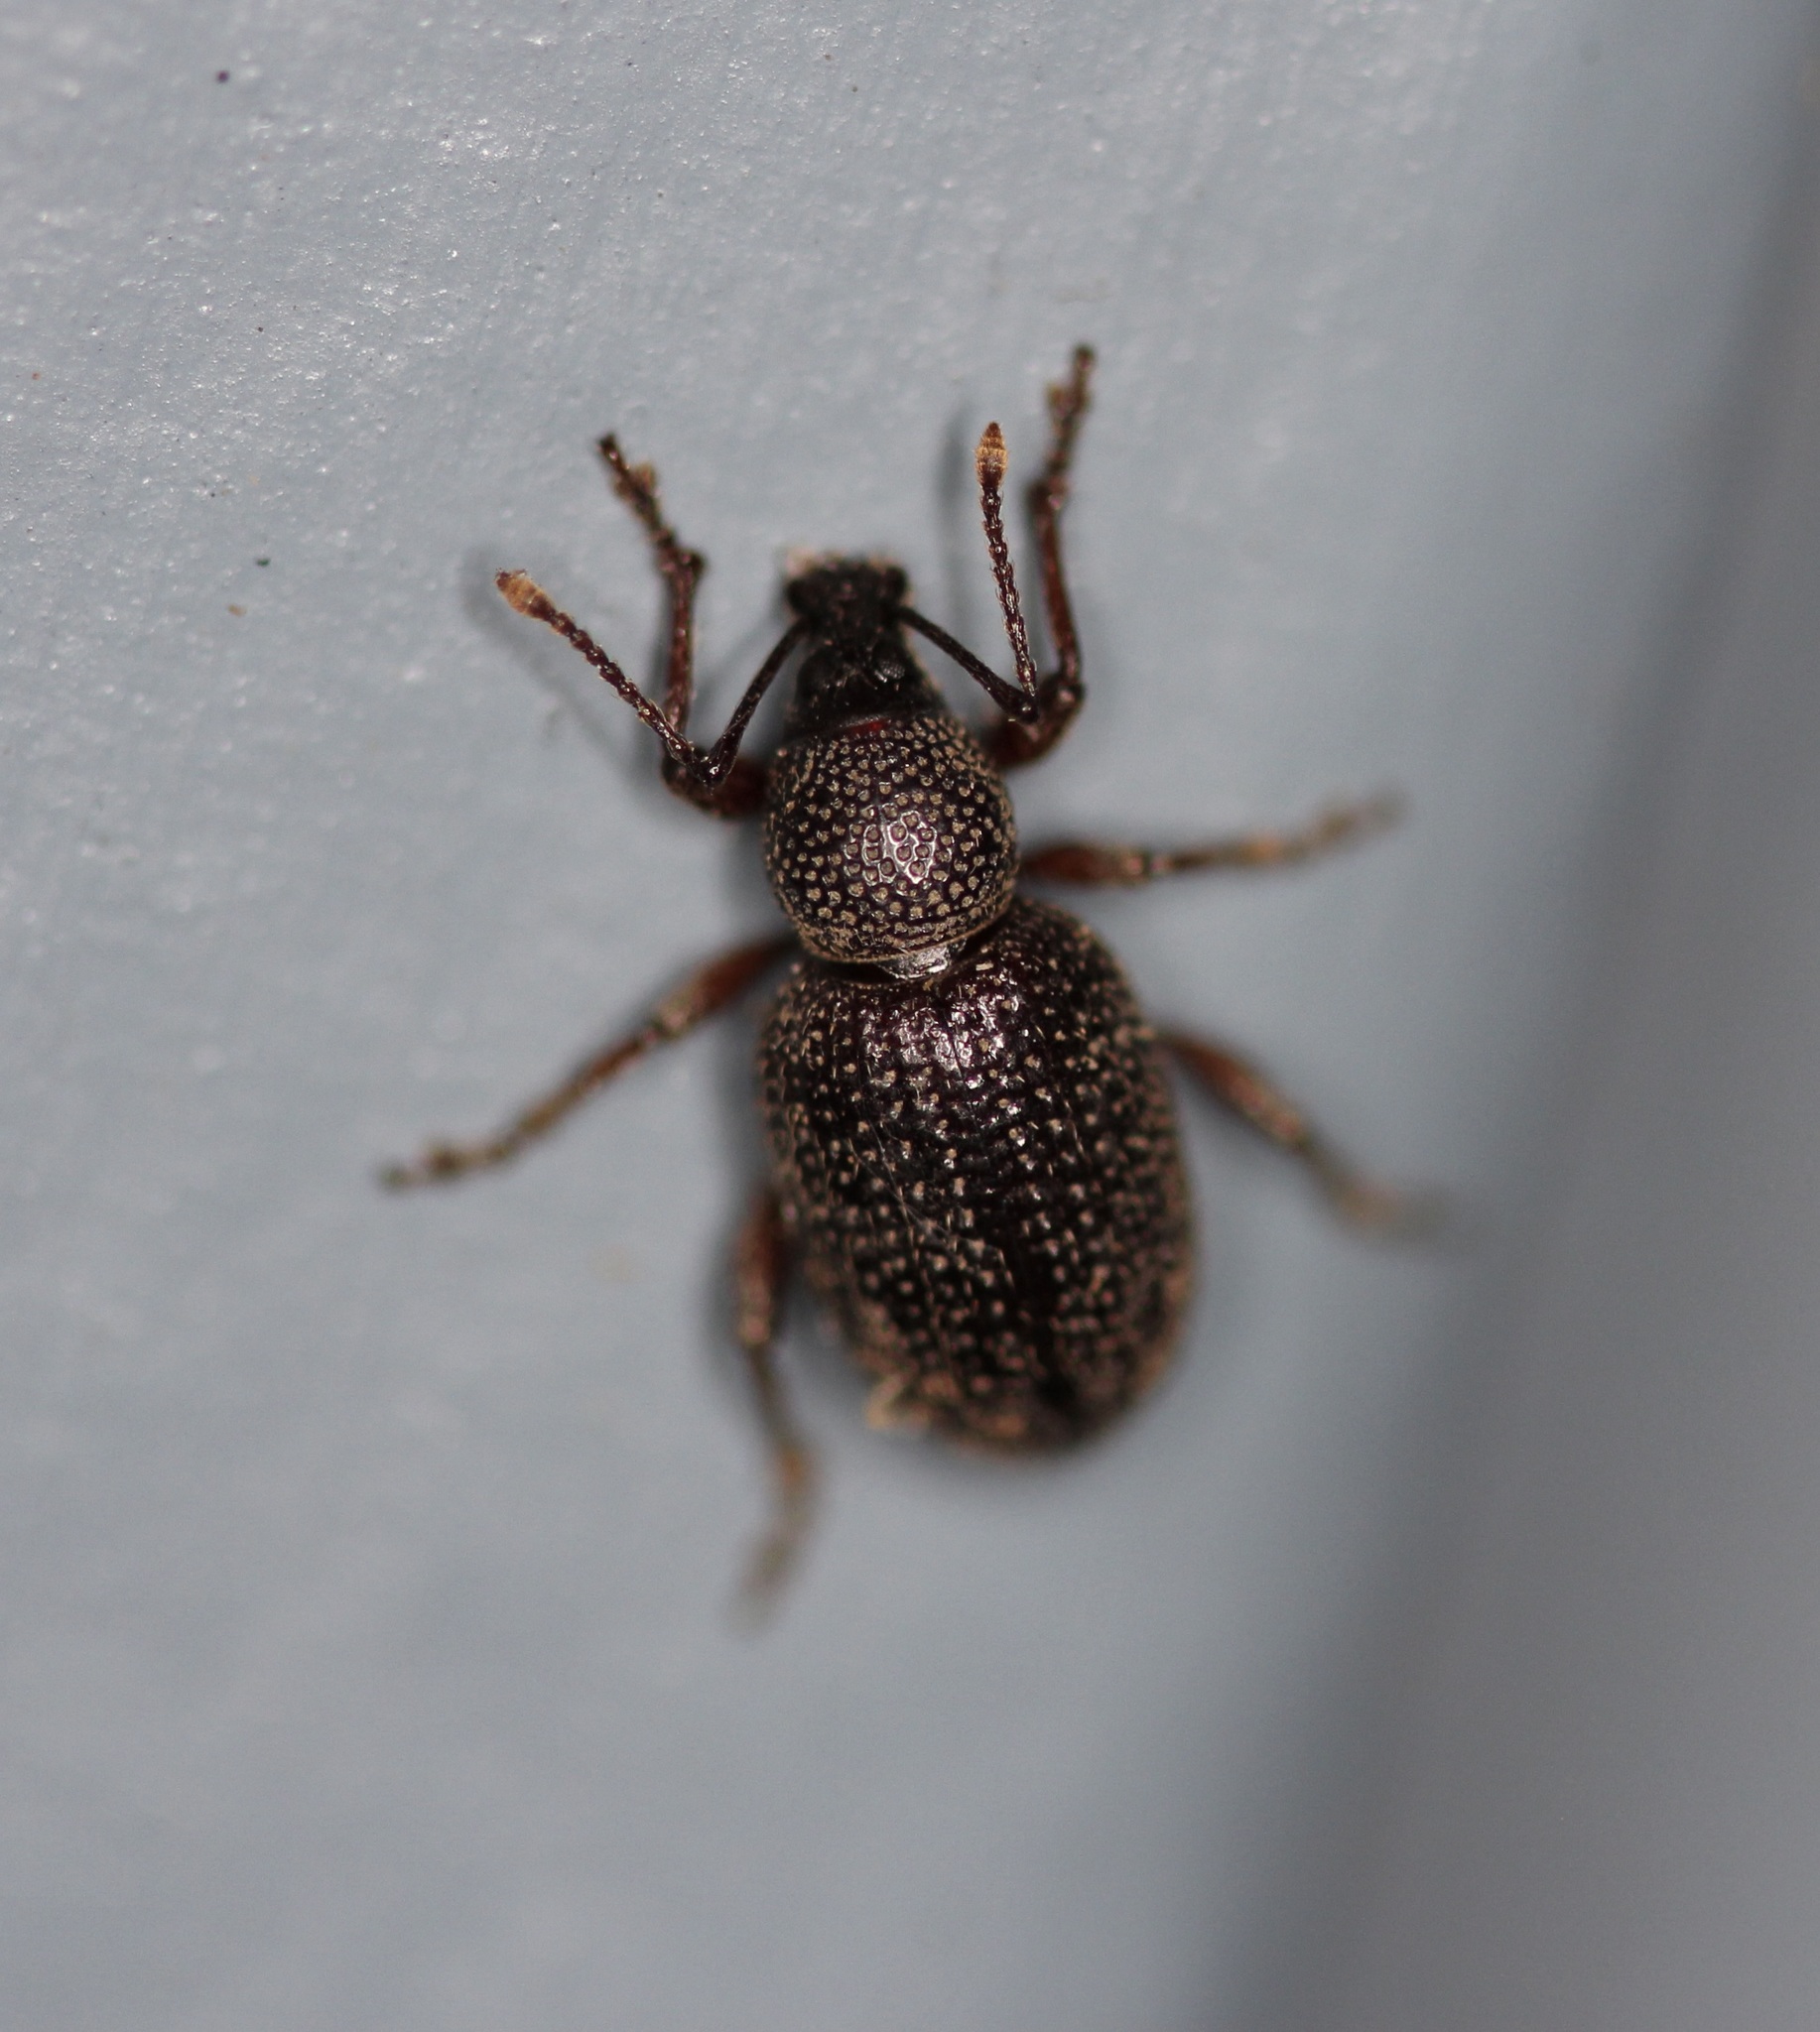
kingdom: Animalia
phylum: Arthropoda
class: Insecta
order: Coleoptera
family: Curculionidae
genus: Otiorhynchus
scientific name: Otiorhynchus cribricollis
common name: Weevil
